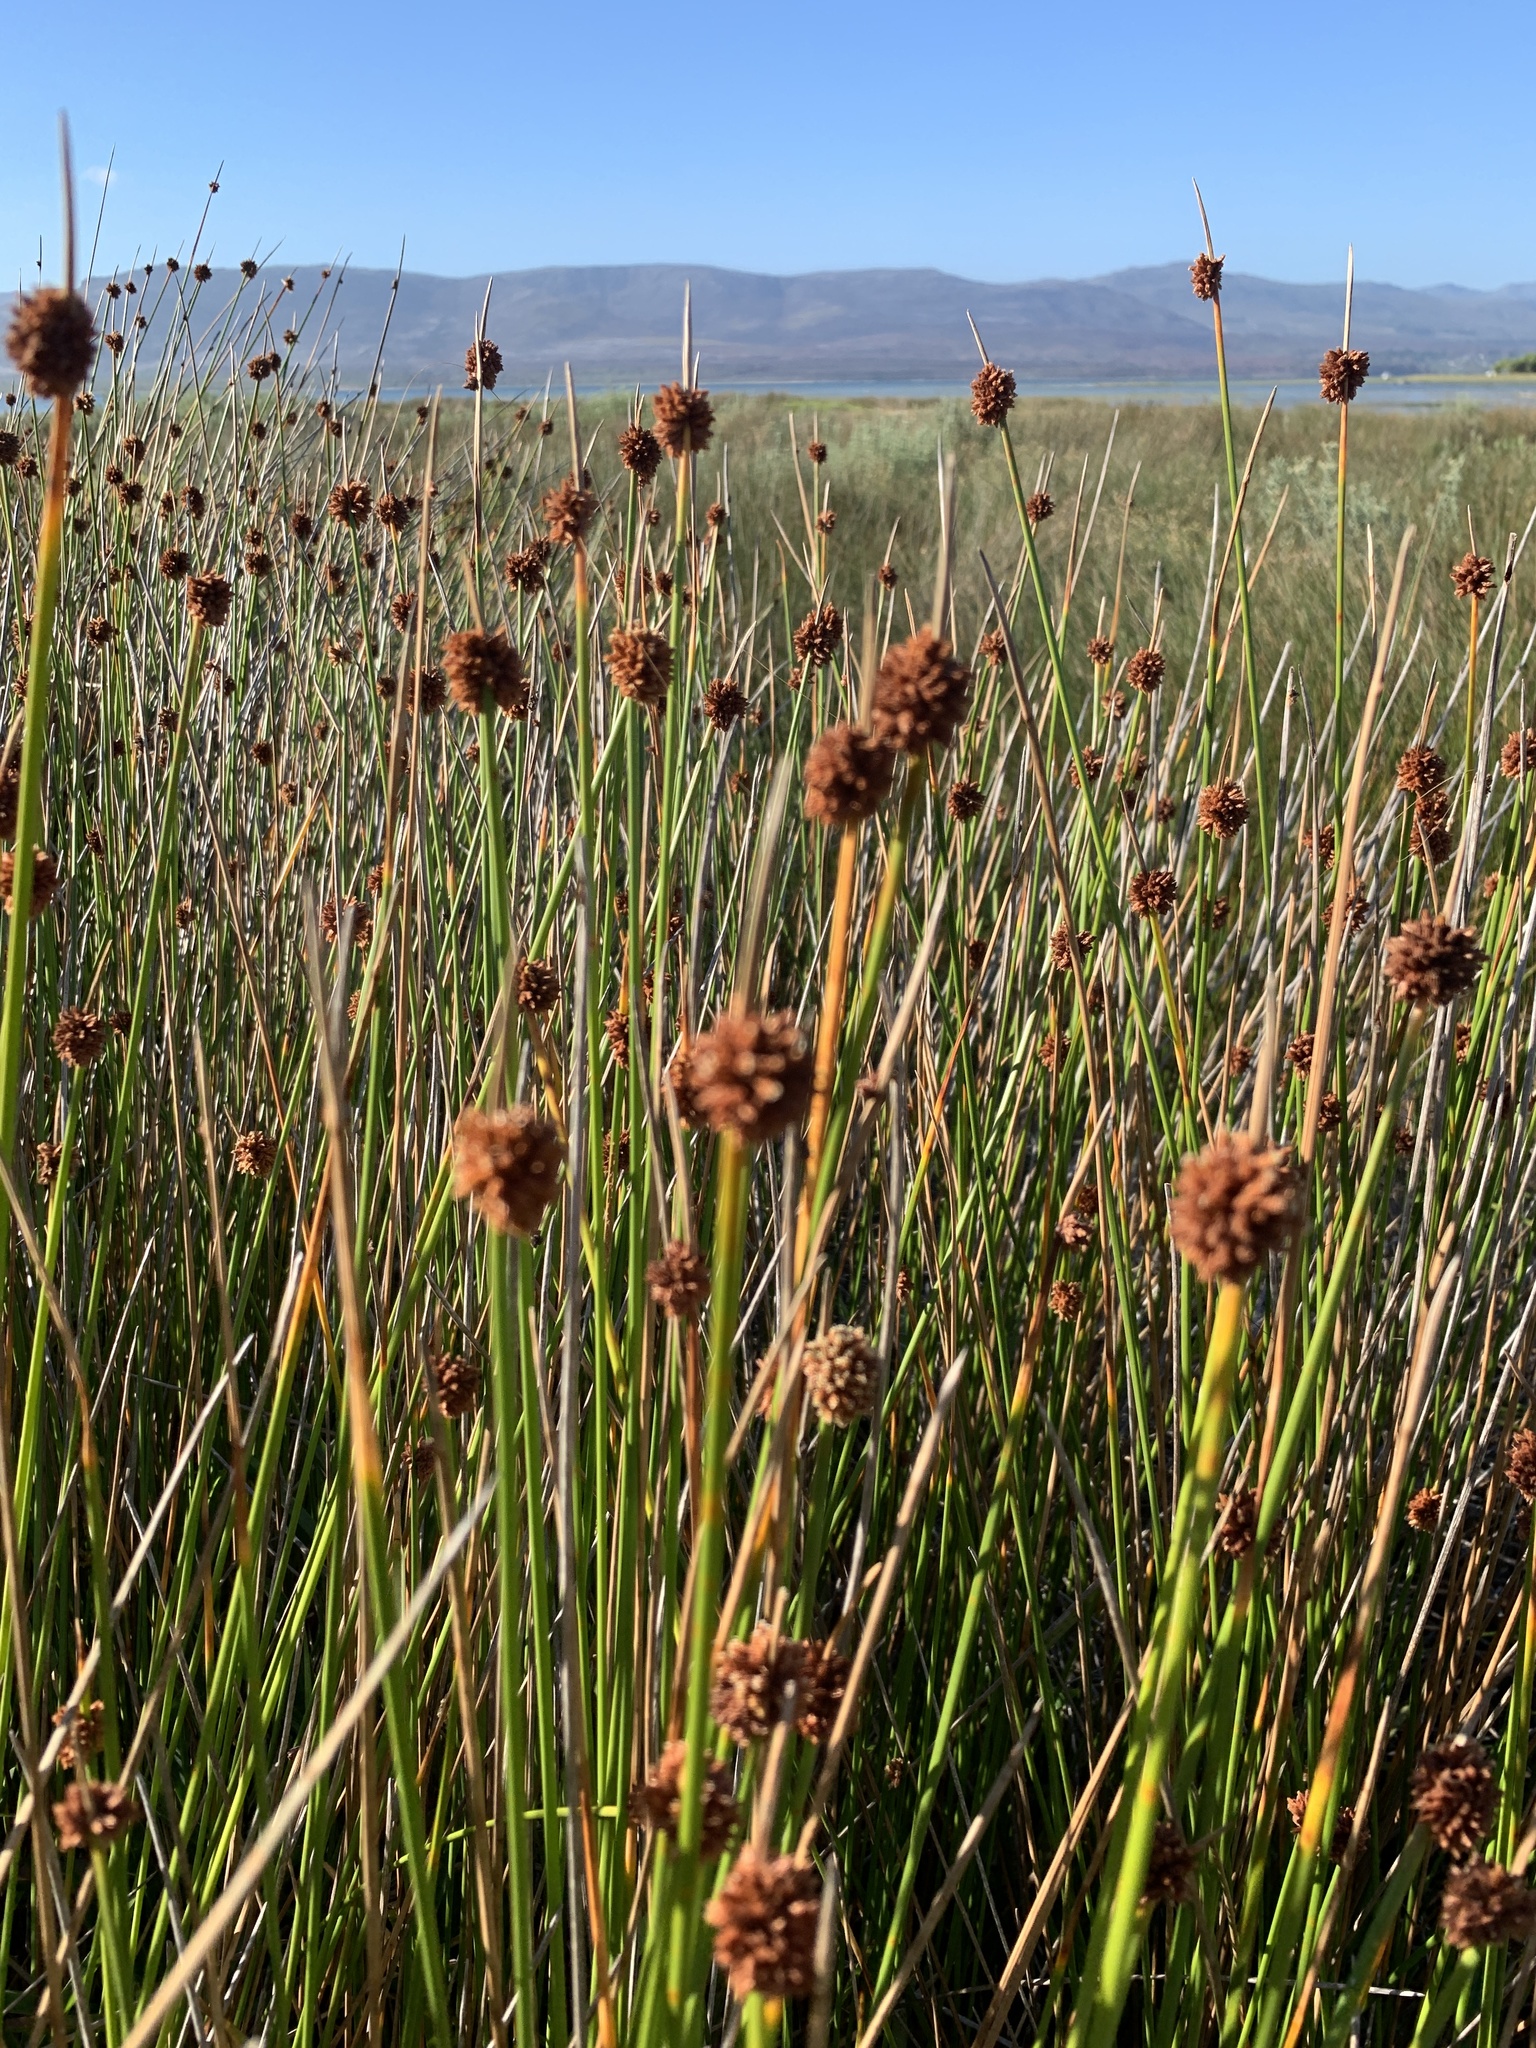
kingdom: Plantae
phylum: Tracheophyta
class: Liliopsida
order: Poales
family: Cyperaceae
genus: Ficinia
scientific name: Ficinia nodosa
